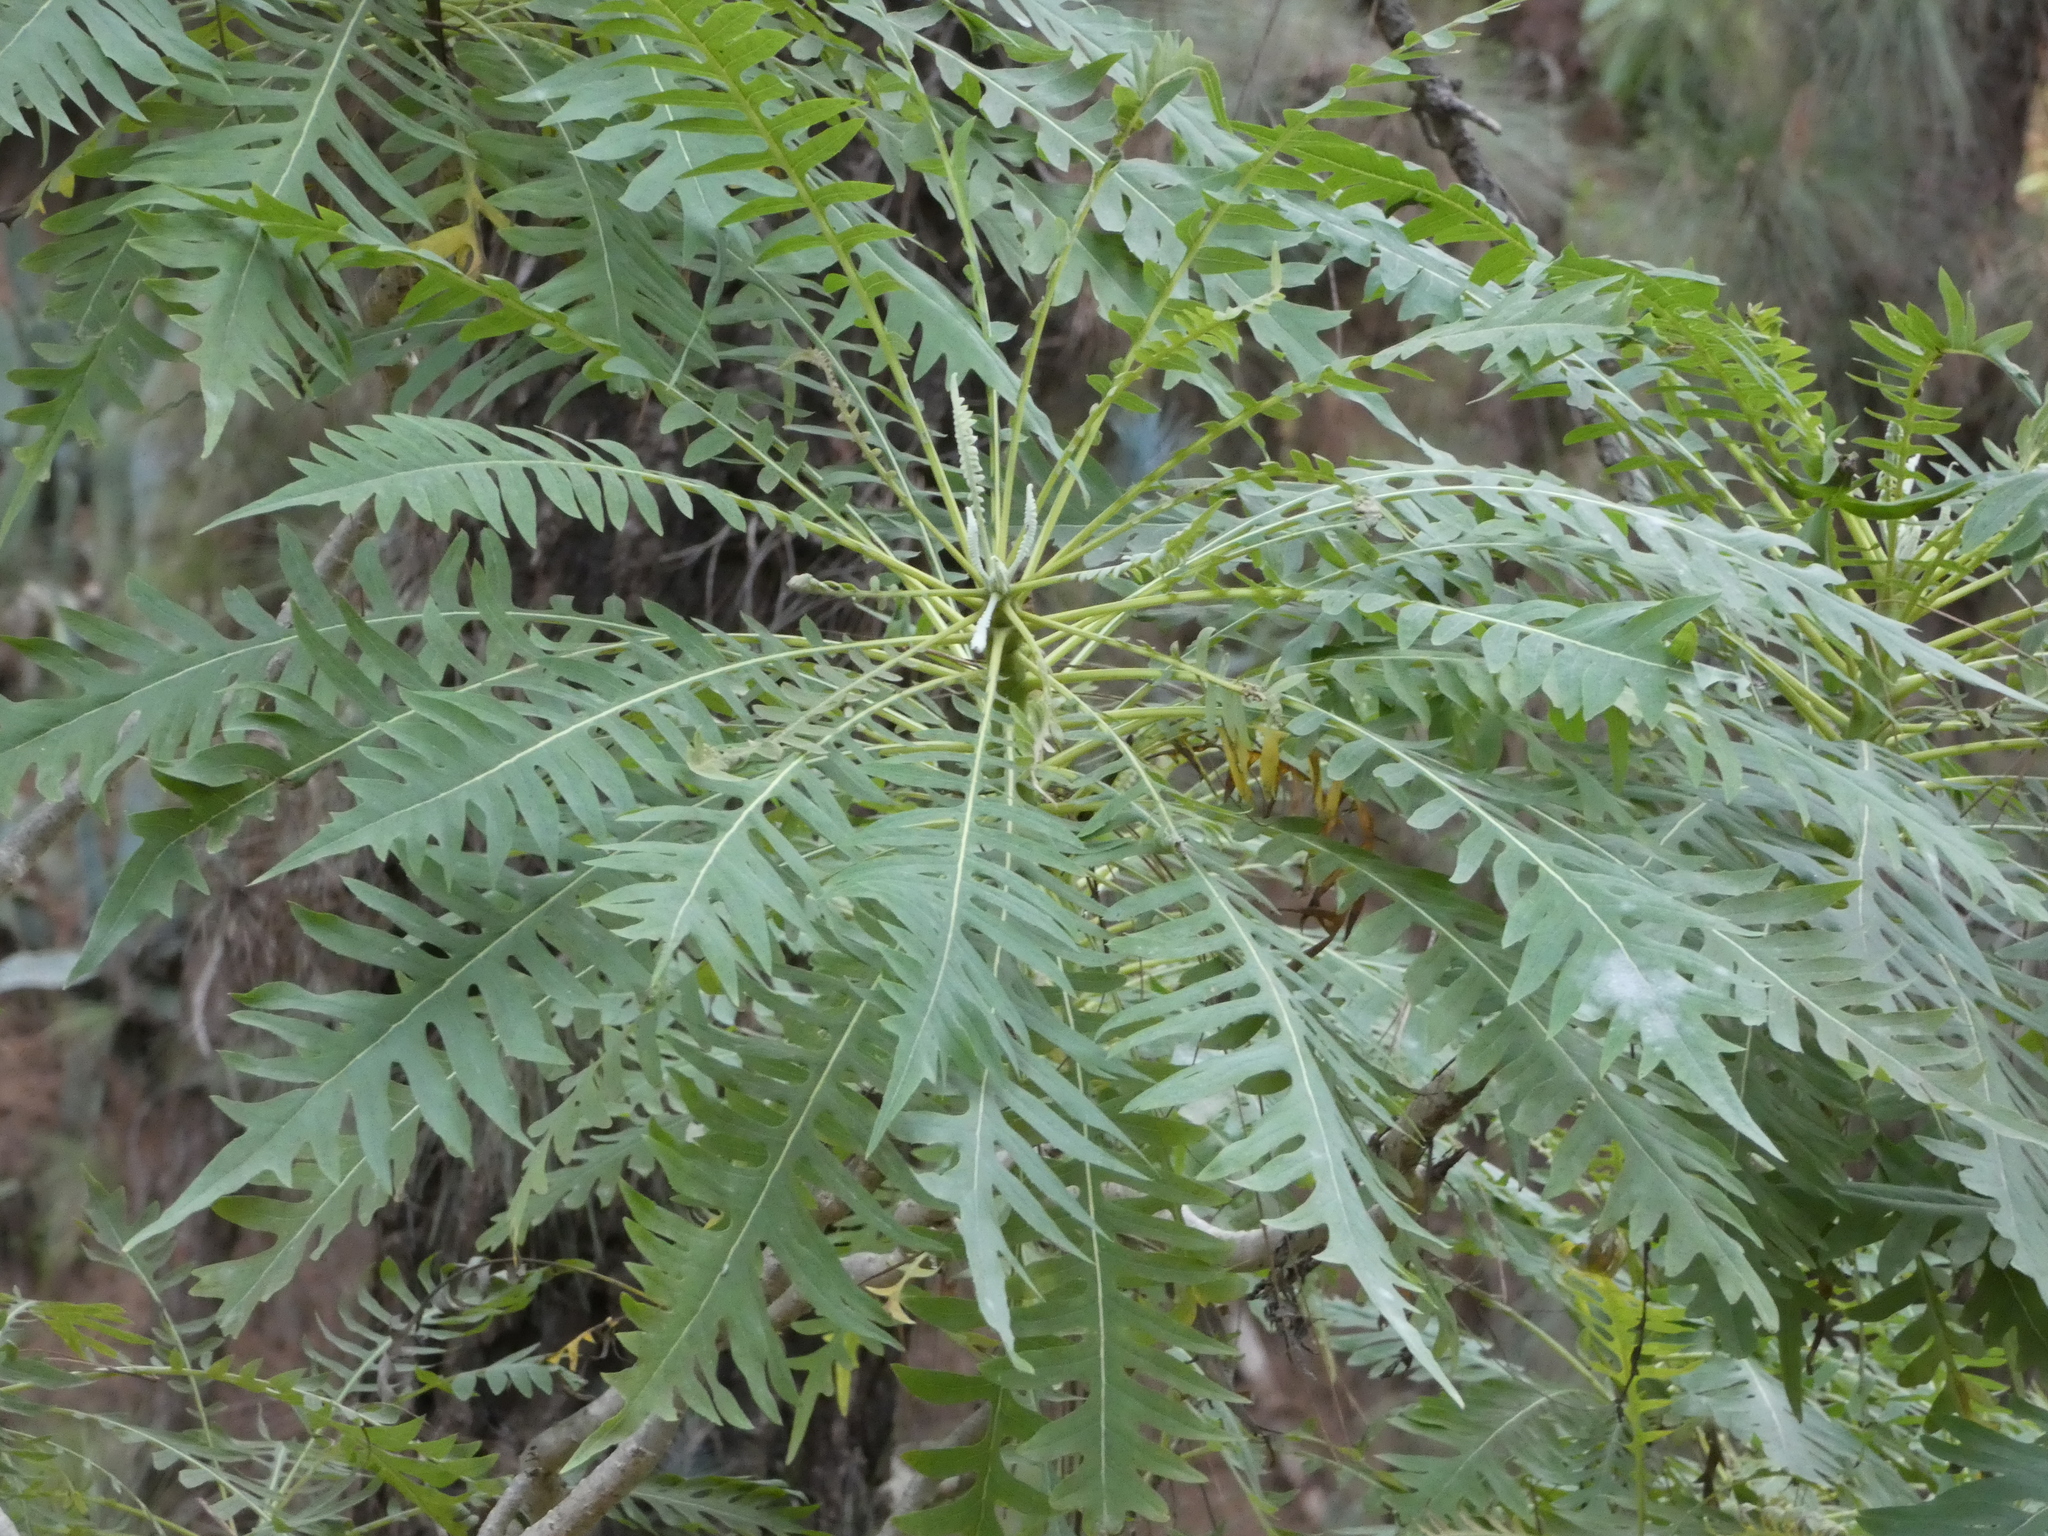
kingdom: Plantae
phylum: Tracheophyta
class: Magnoliopsida
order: Asterales
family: Asteraceae
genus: Sonchus
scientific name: Sonchus canariensis
